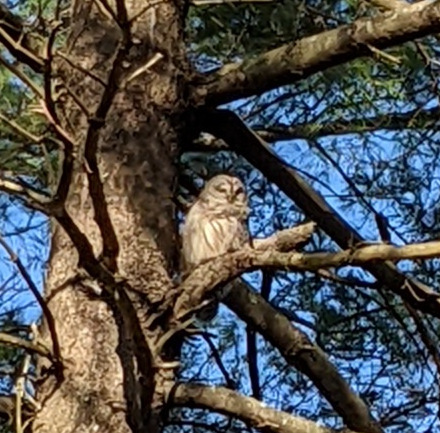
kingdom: Animalia
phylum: Chordata
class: Aves
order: Strigiformes
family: Strigidae
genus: Strix
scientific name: Strix varia
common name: Barred owl
